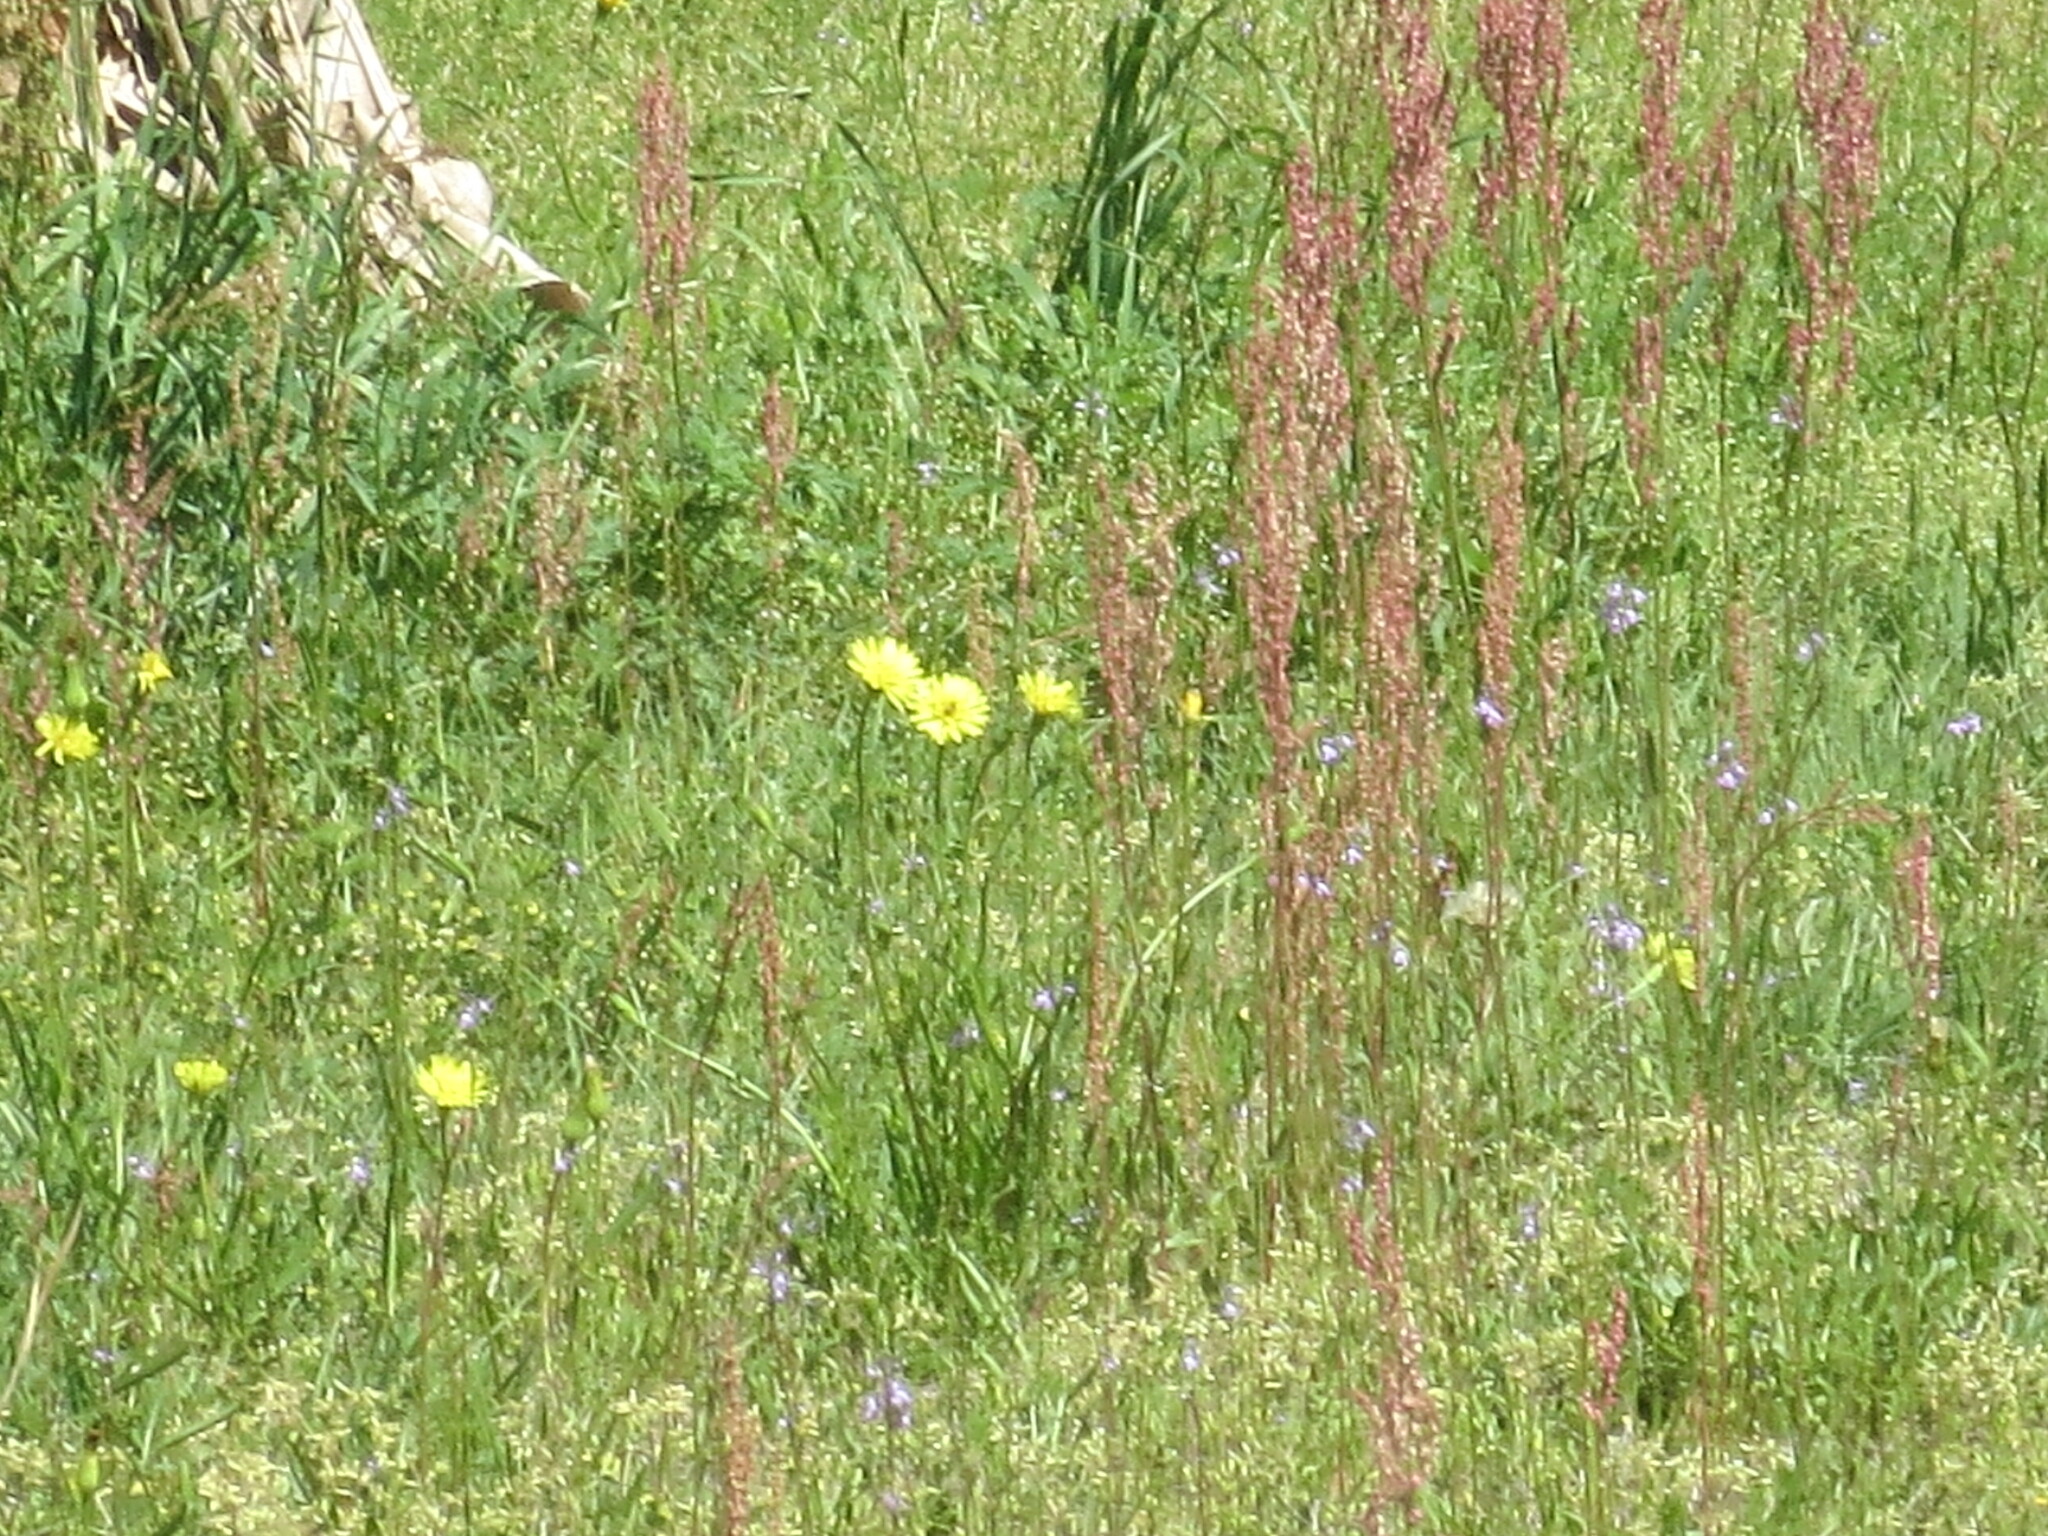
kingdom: Plantae
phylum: Tracheophyta
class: Magnoliopsida
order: Asterales
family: Asteraceae
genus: Pyrrhopappus
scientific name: Pyrrhopappus carolinianus
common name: Carolina desert-chicory
